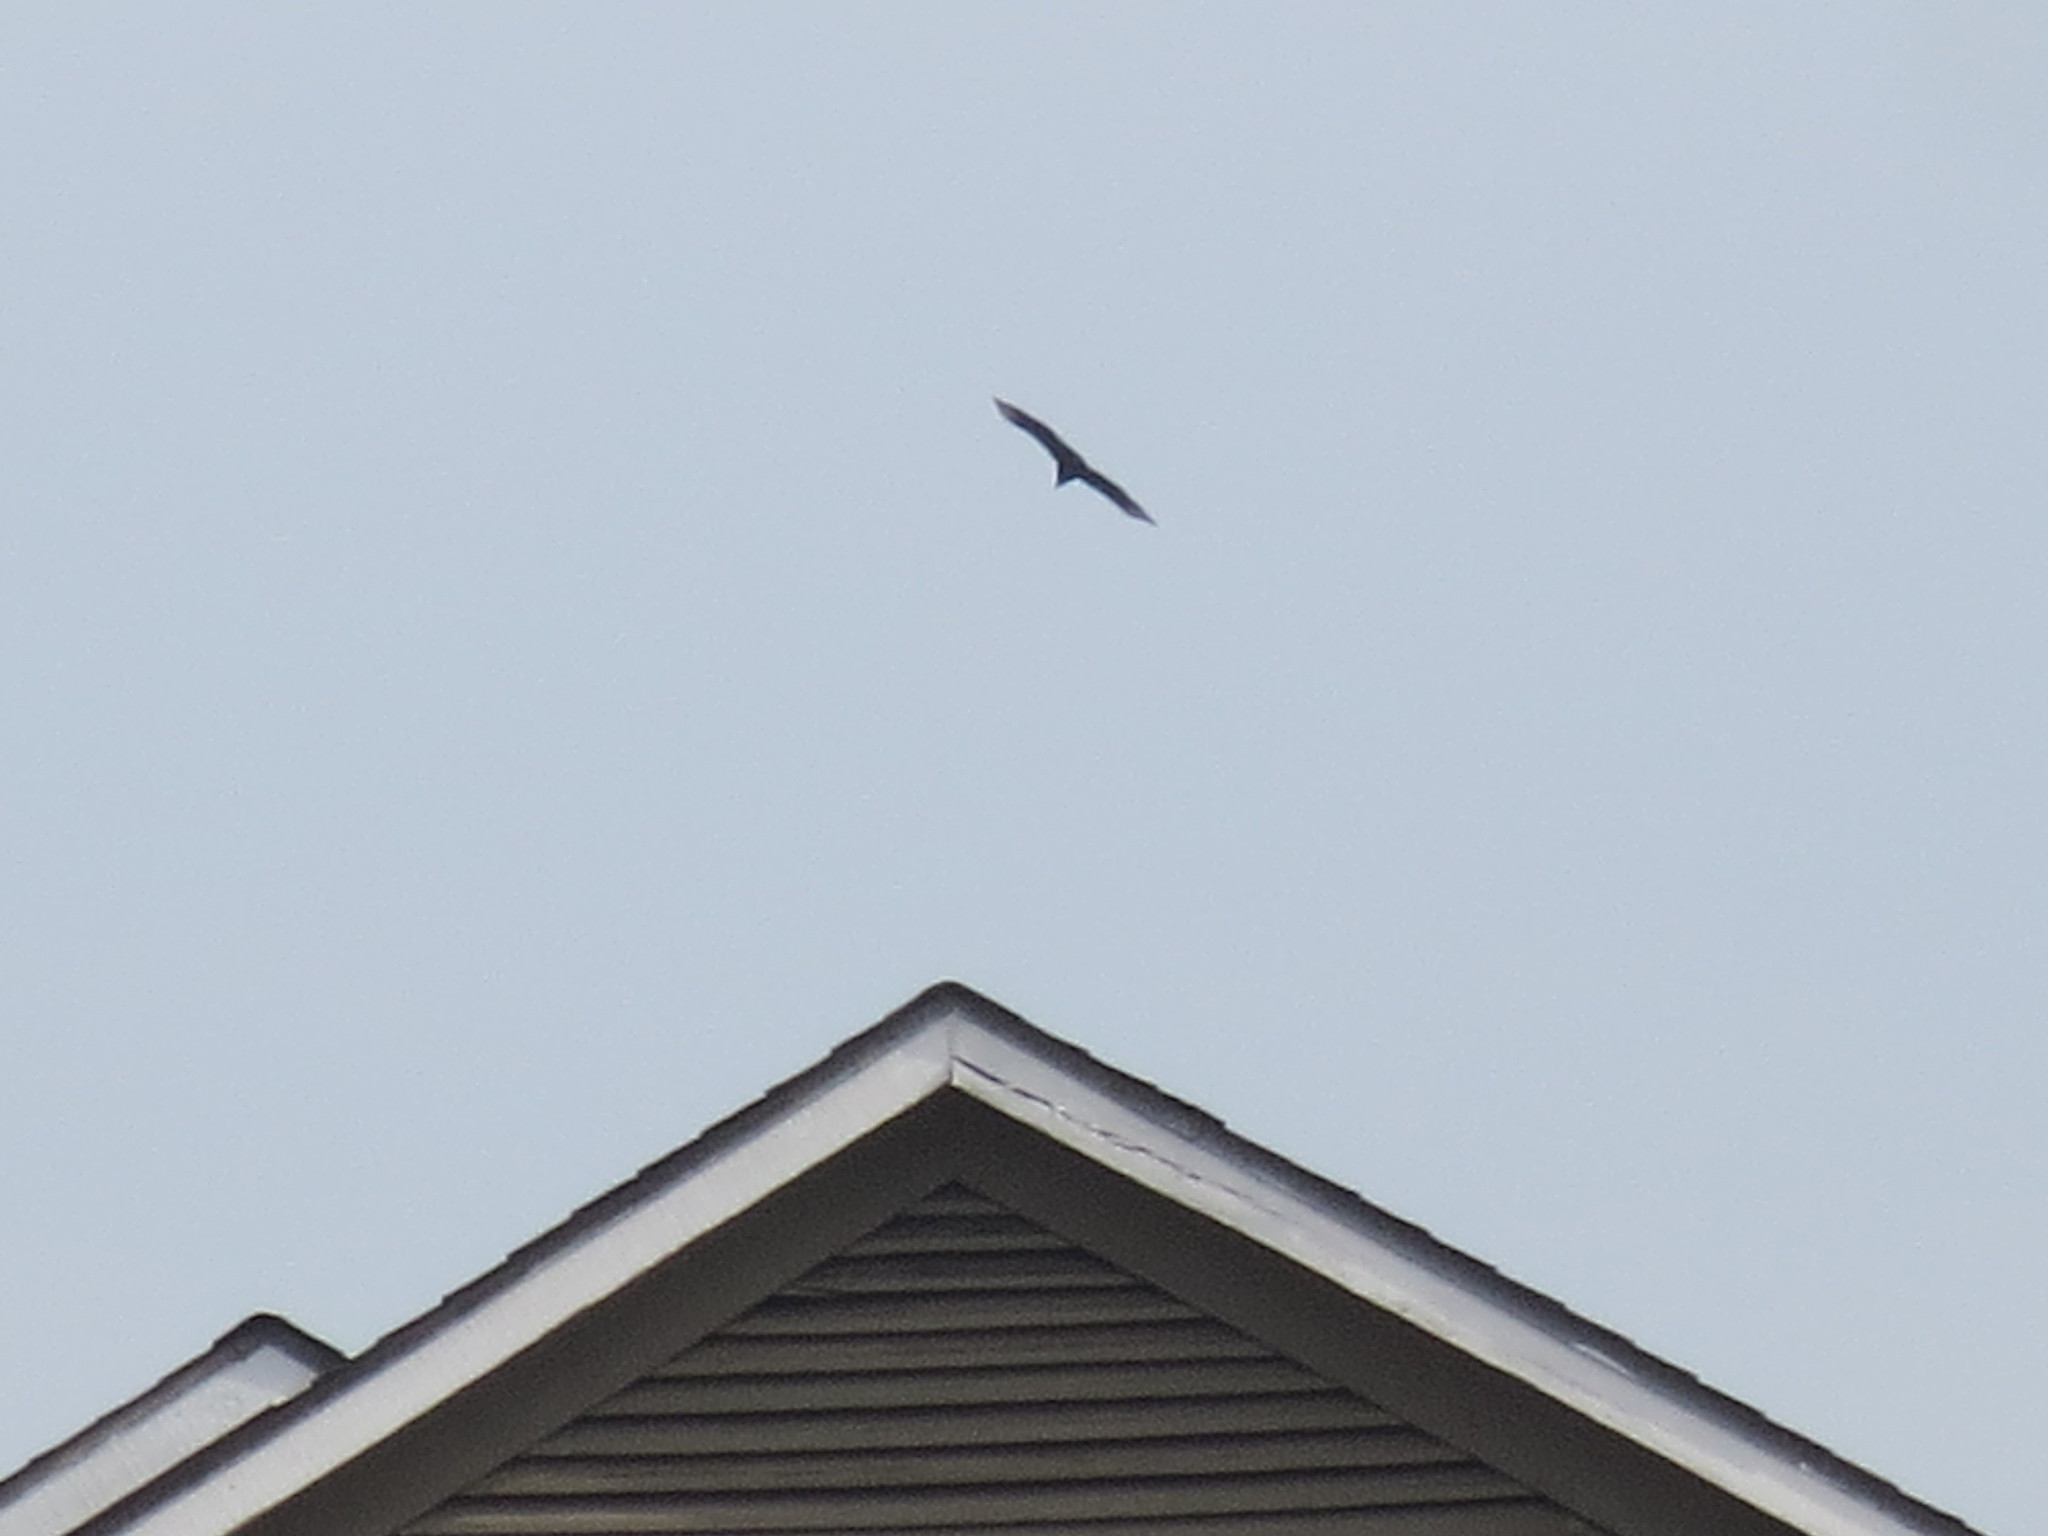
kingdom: Animalia
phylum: Chordata
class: Aves
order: Accipitriformes
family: Cathartidae
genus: Coragyps
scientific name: Coragyps atratus
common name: Black vulture
